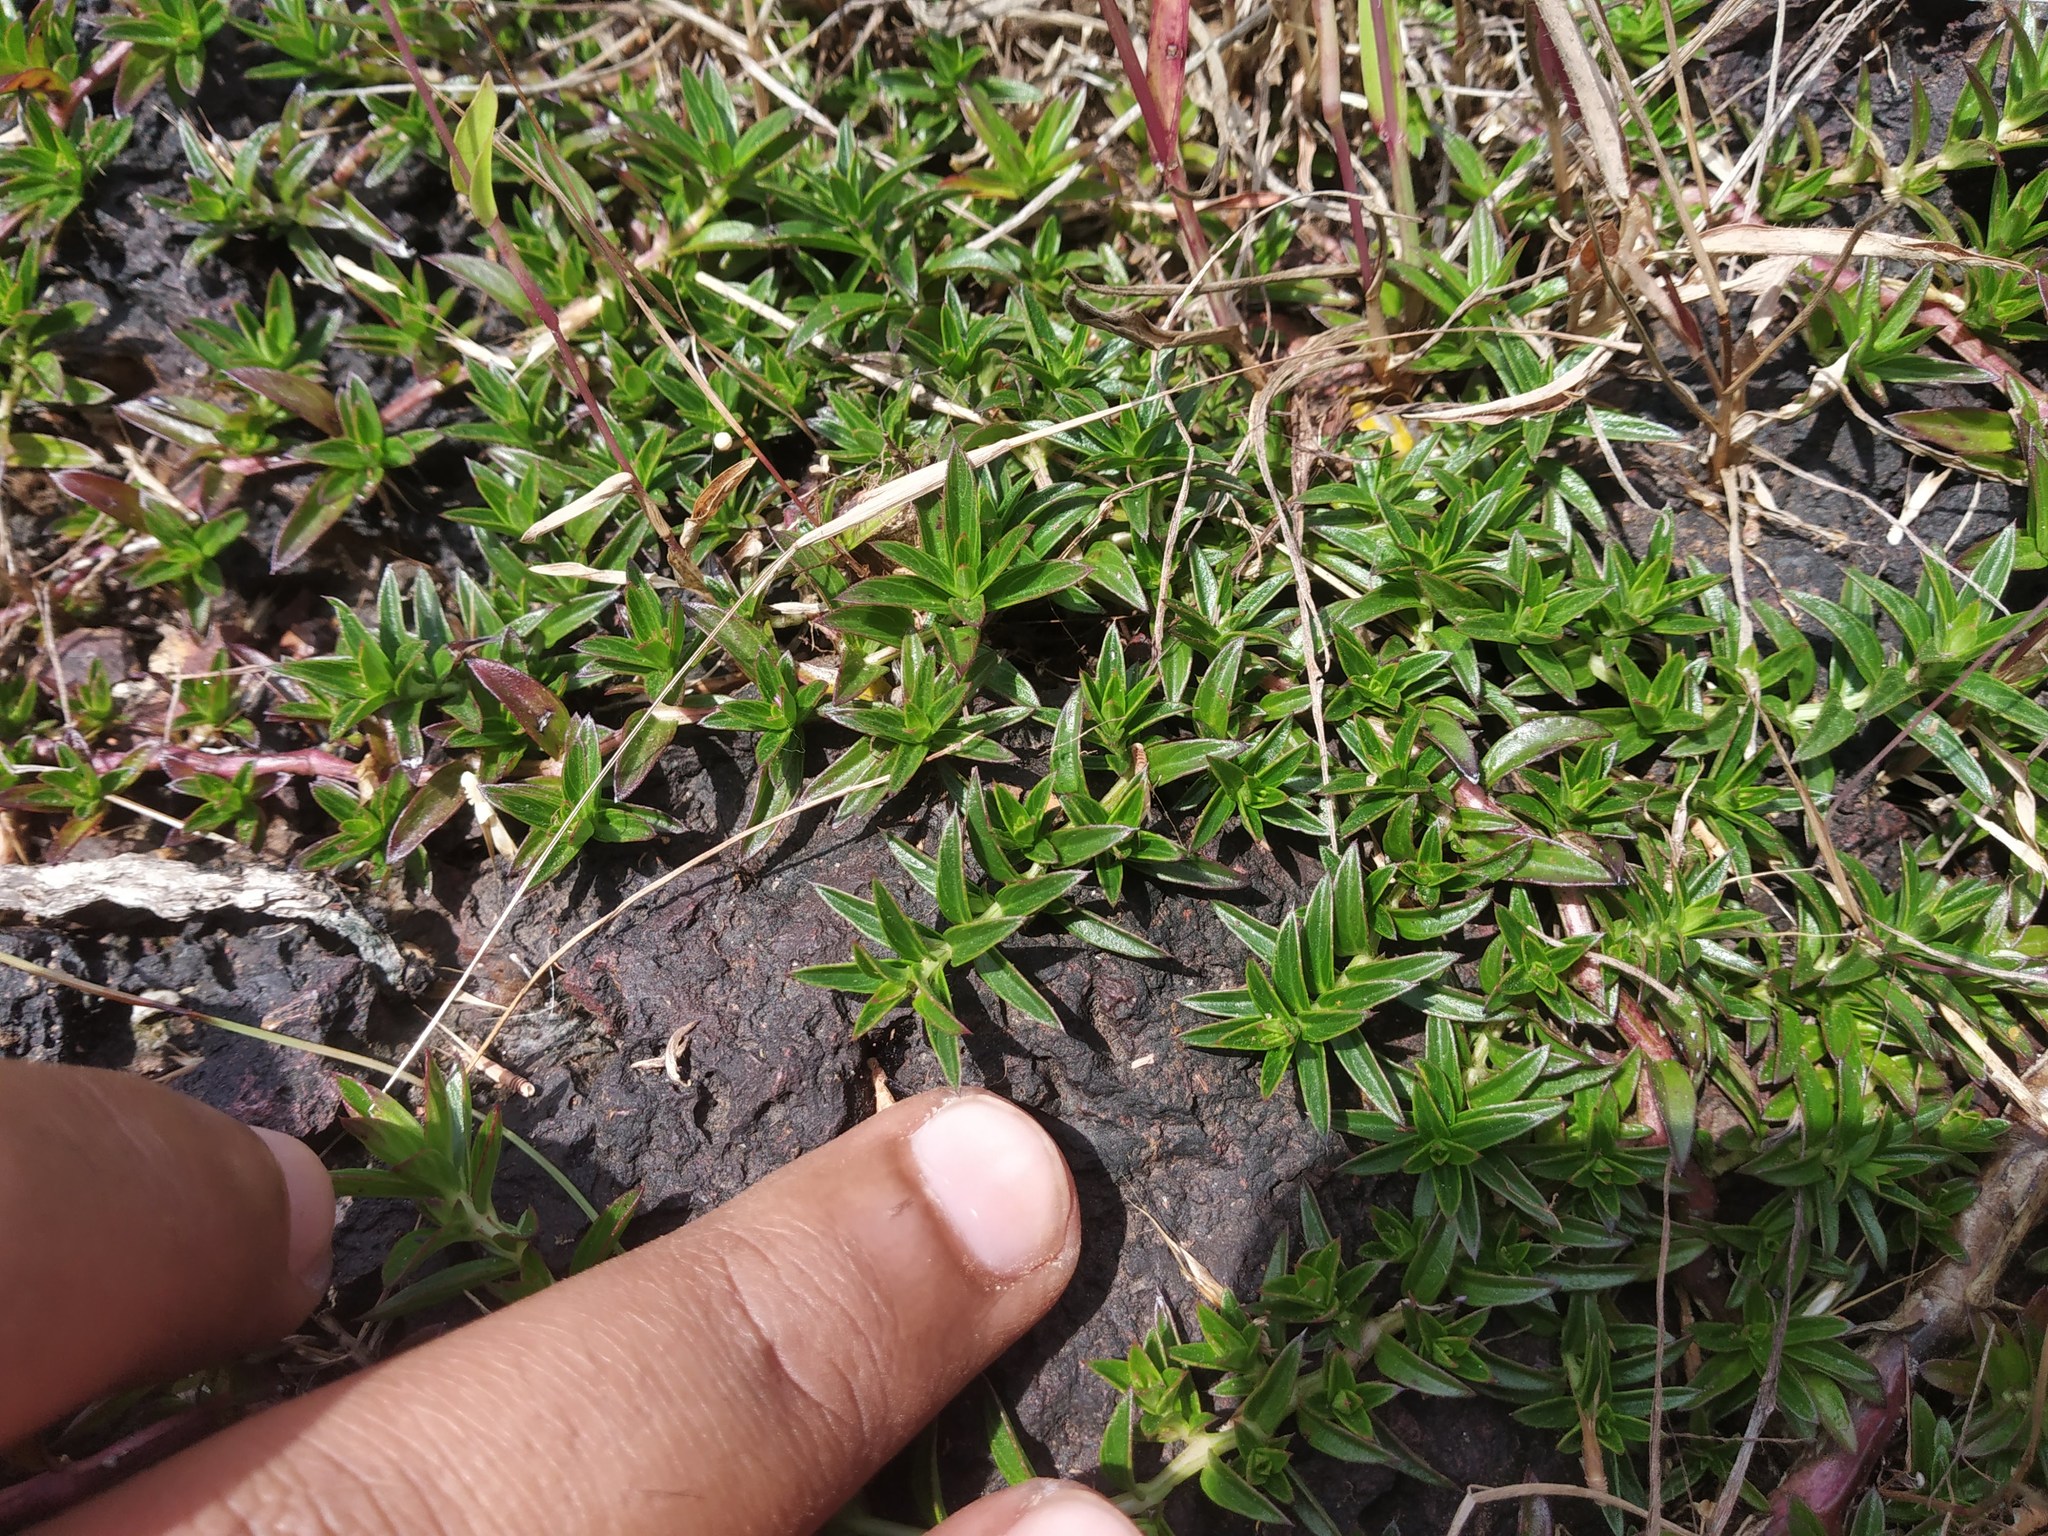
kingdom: Plantae
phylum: Tracheophyta
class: Magnoliopsida
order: Lamiales
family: Acanthaceae
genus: Lepidagathis
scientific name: Lepidagathis keralensis
